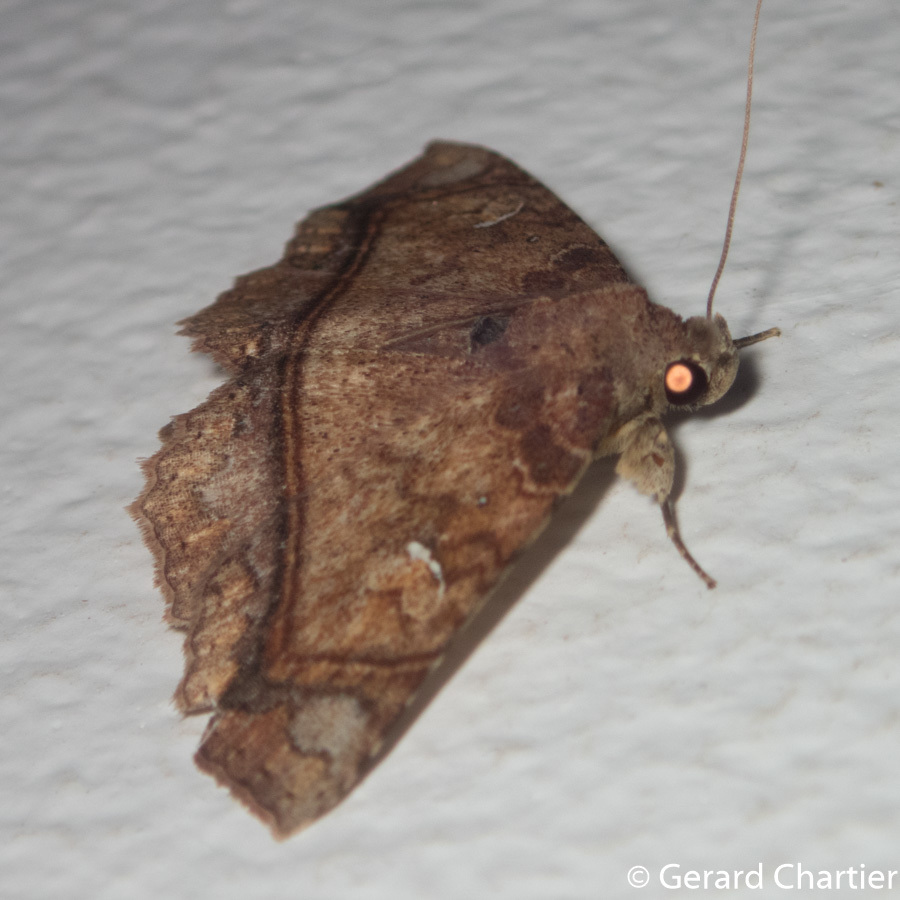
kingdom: Animalia
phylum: Arthropoda
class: Insecta
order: Lepidoptera
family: Erebidae
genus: Tamba
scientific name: Tamba rufipennis
